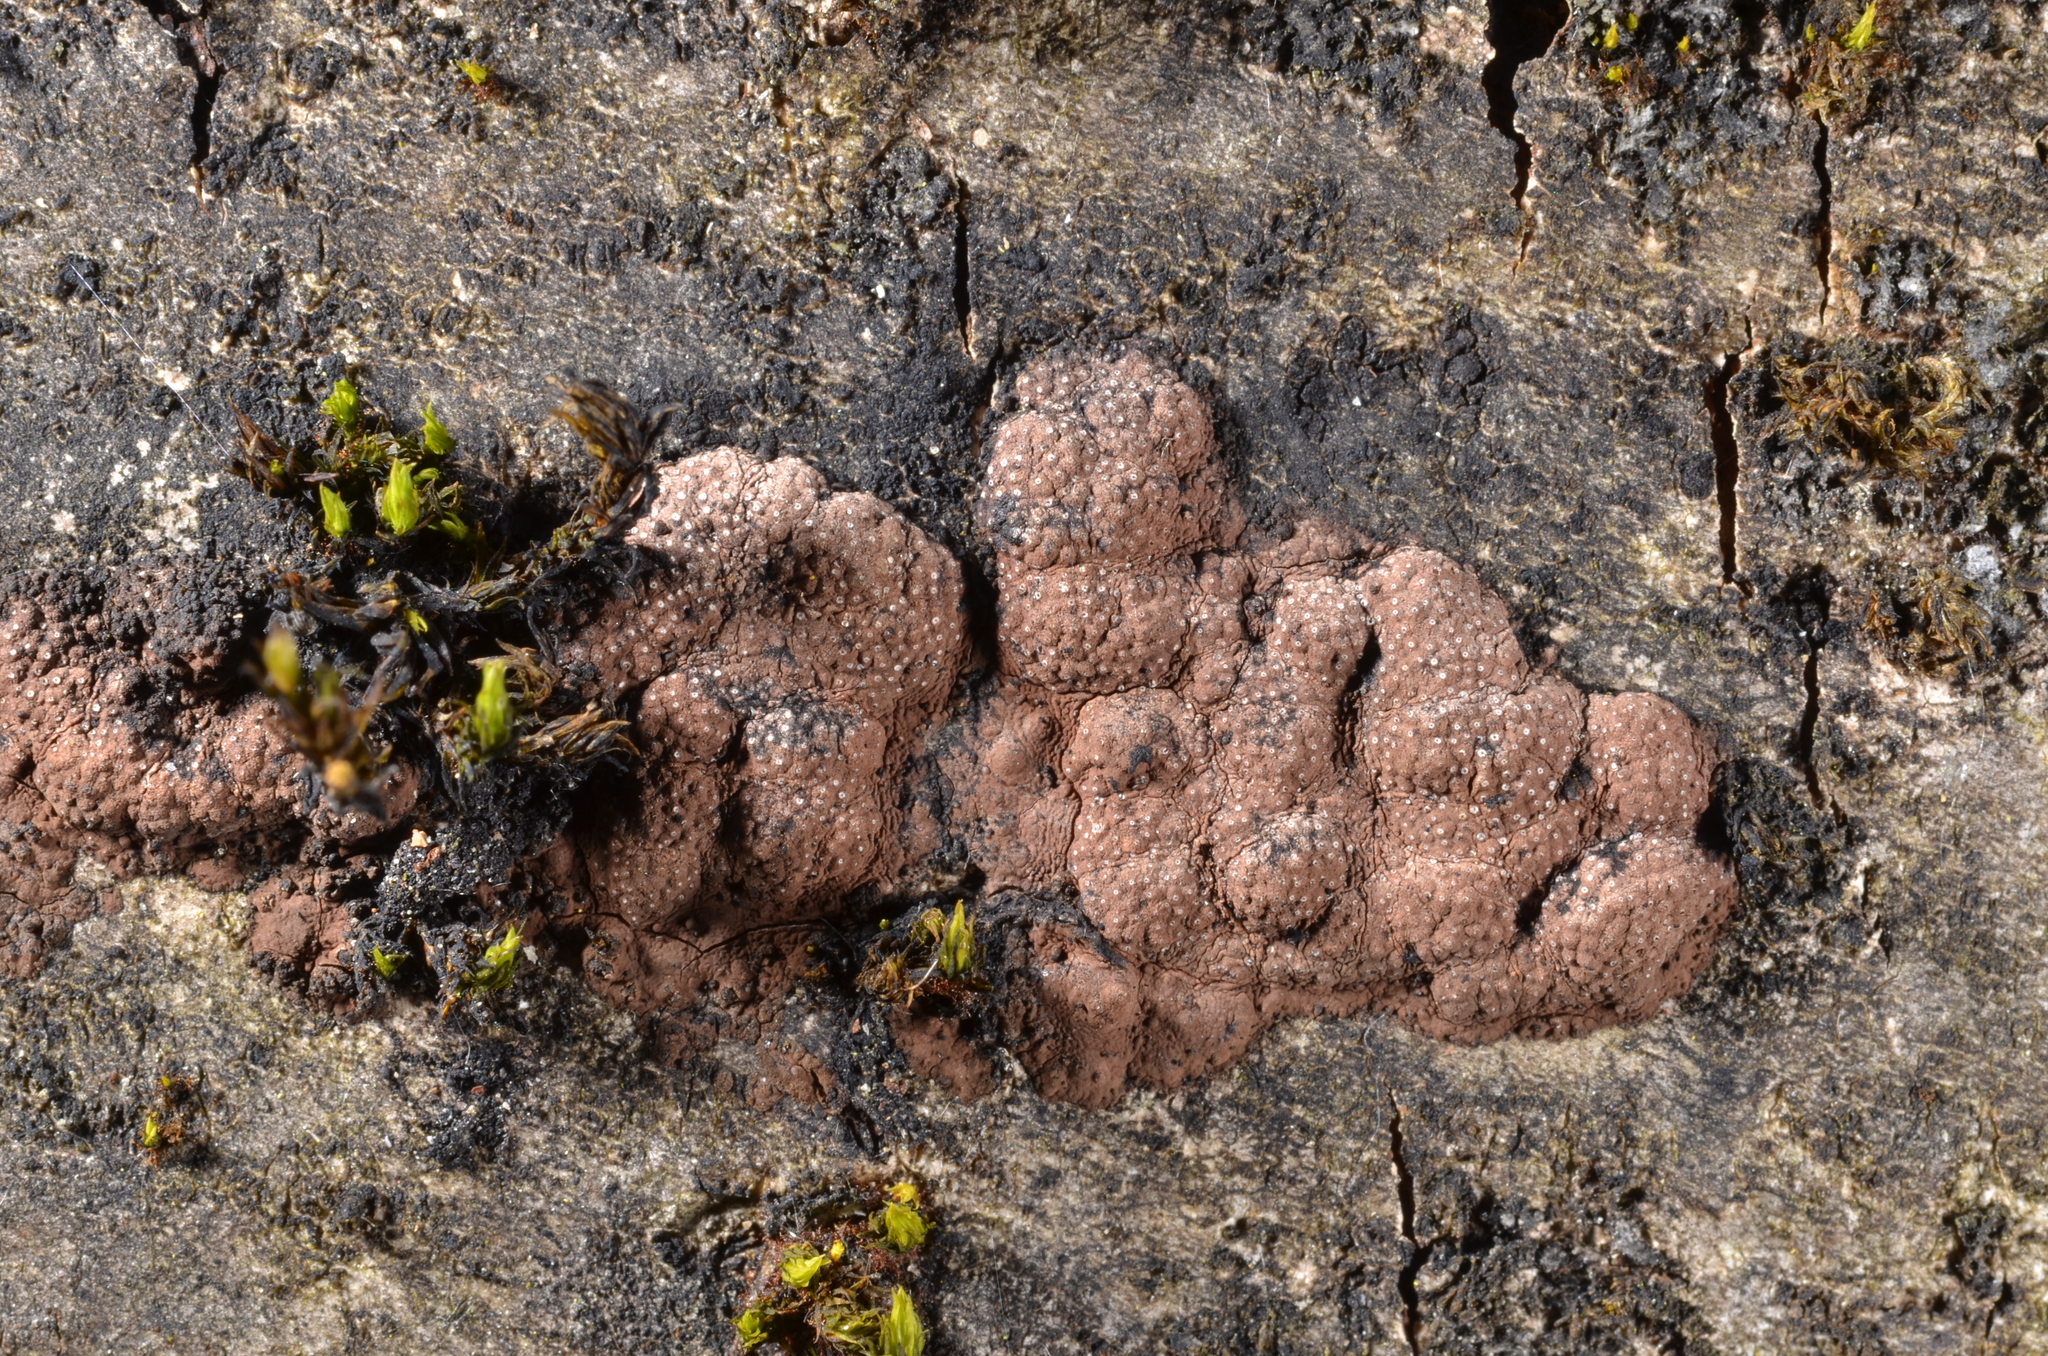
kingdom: Fungi
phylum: Ascomycota
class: Sordariomycetes
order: Xylariales
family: Hypoxylaceae
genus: Hypoxylon
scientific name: Hypoxylon perforatum
